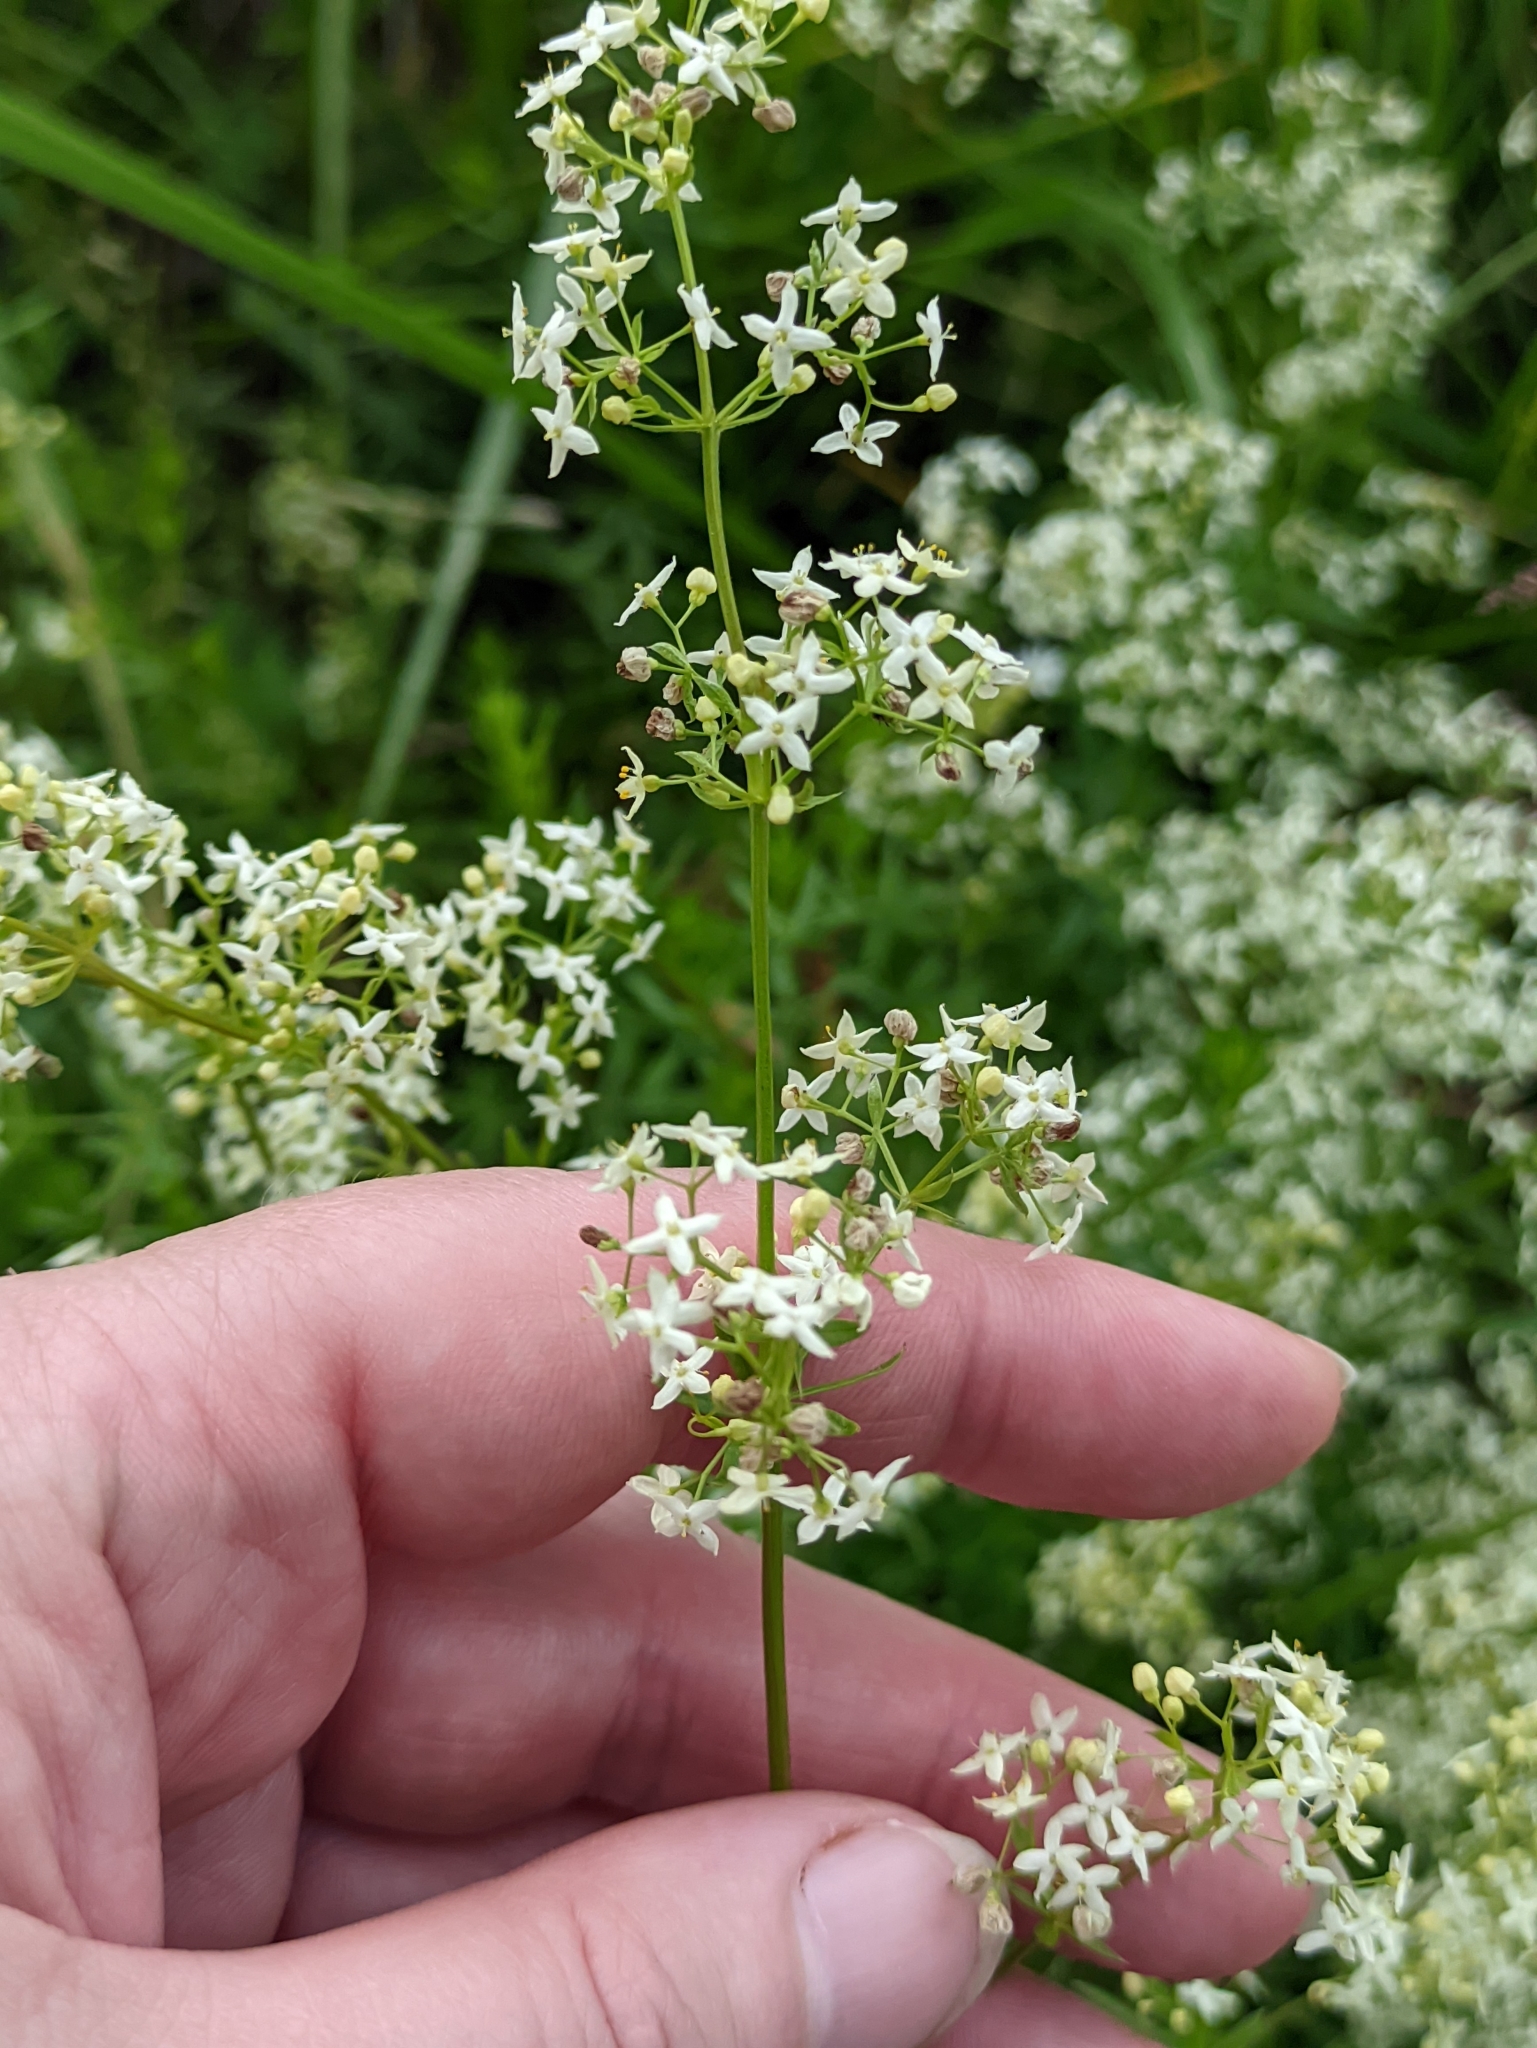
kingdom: Plantae
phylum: Tracheophyta
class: Magnoliopsida
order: Gentianales
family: Rubiaceae
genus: Galium
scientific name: Galium mollugo
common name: Hedge bedstraw
